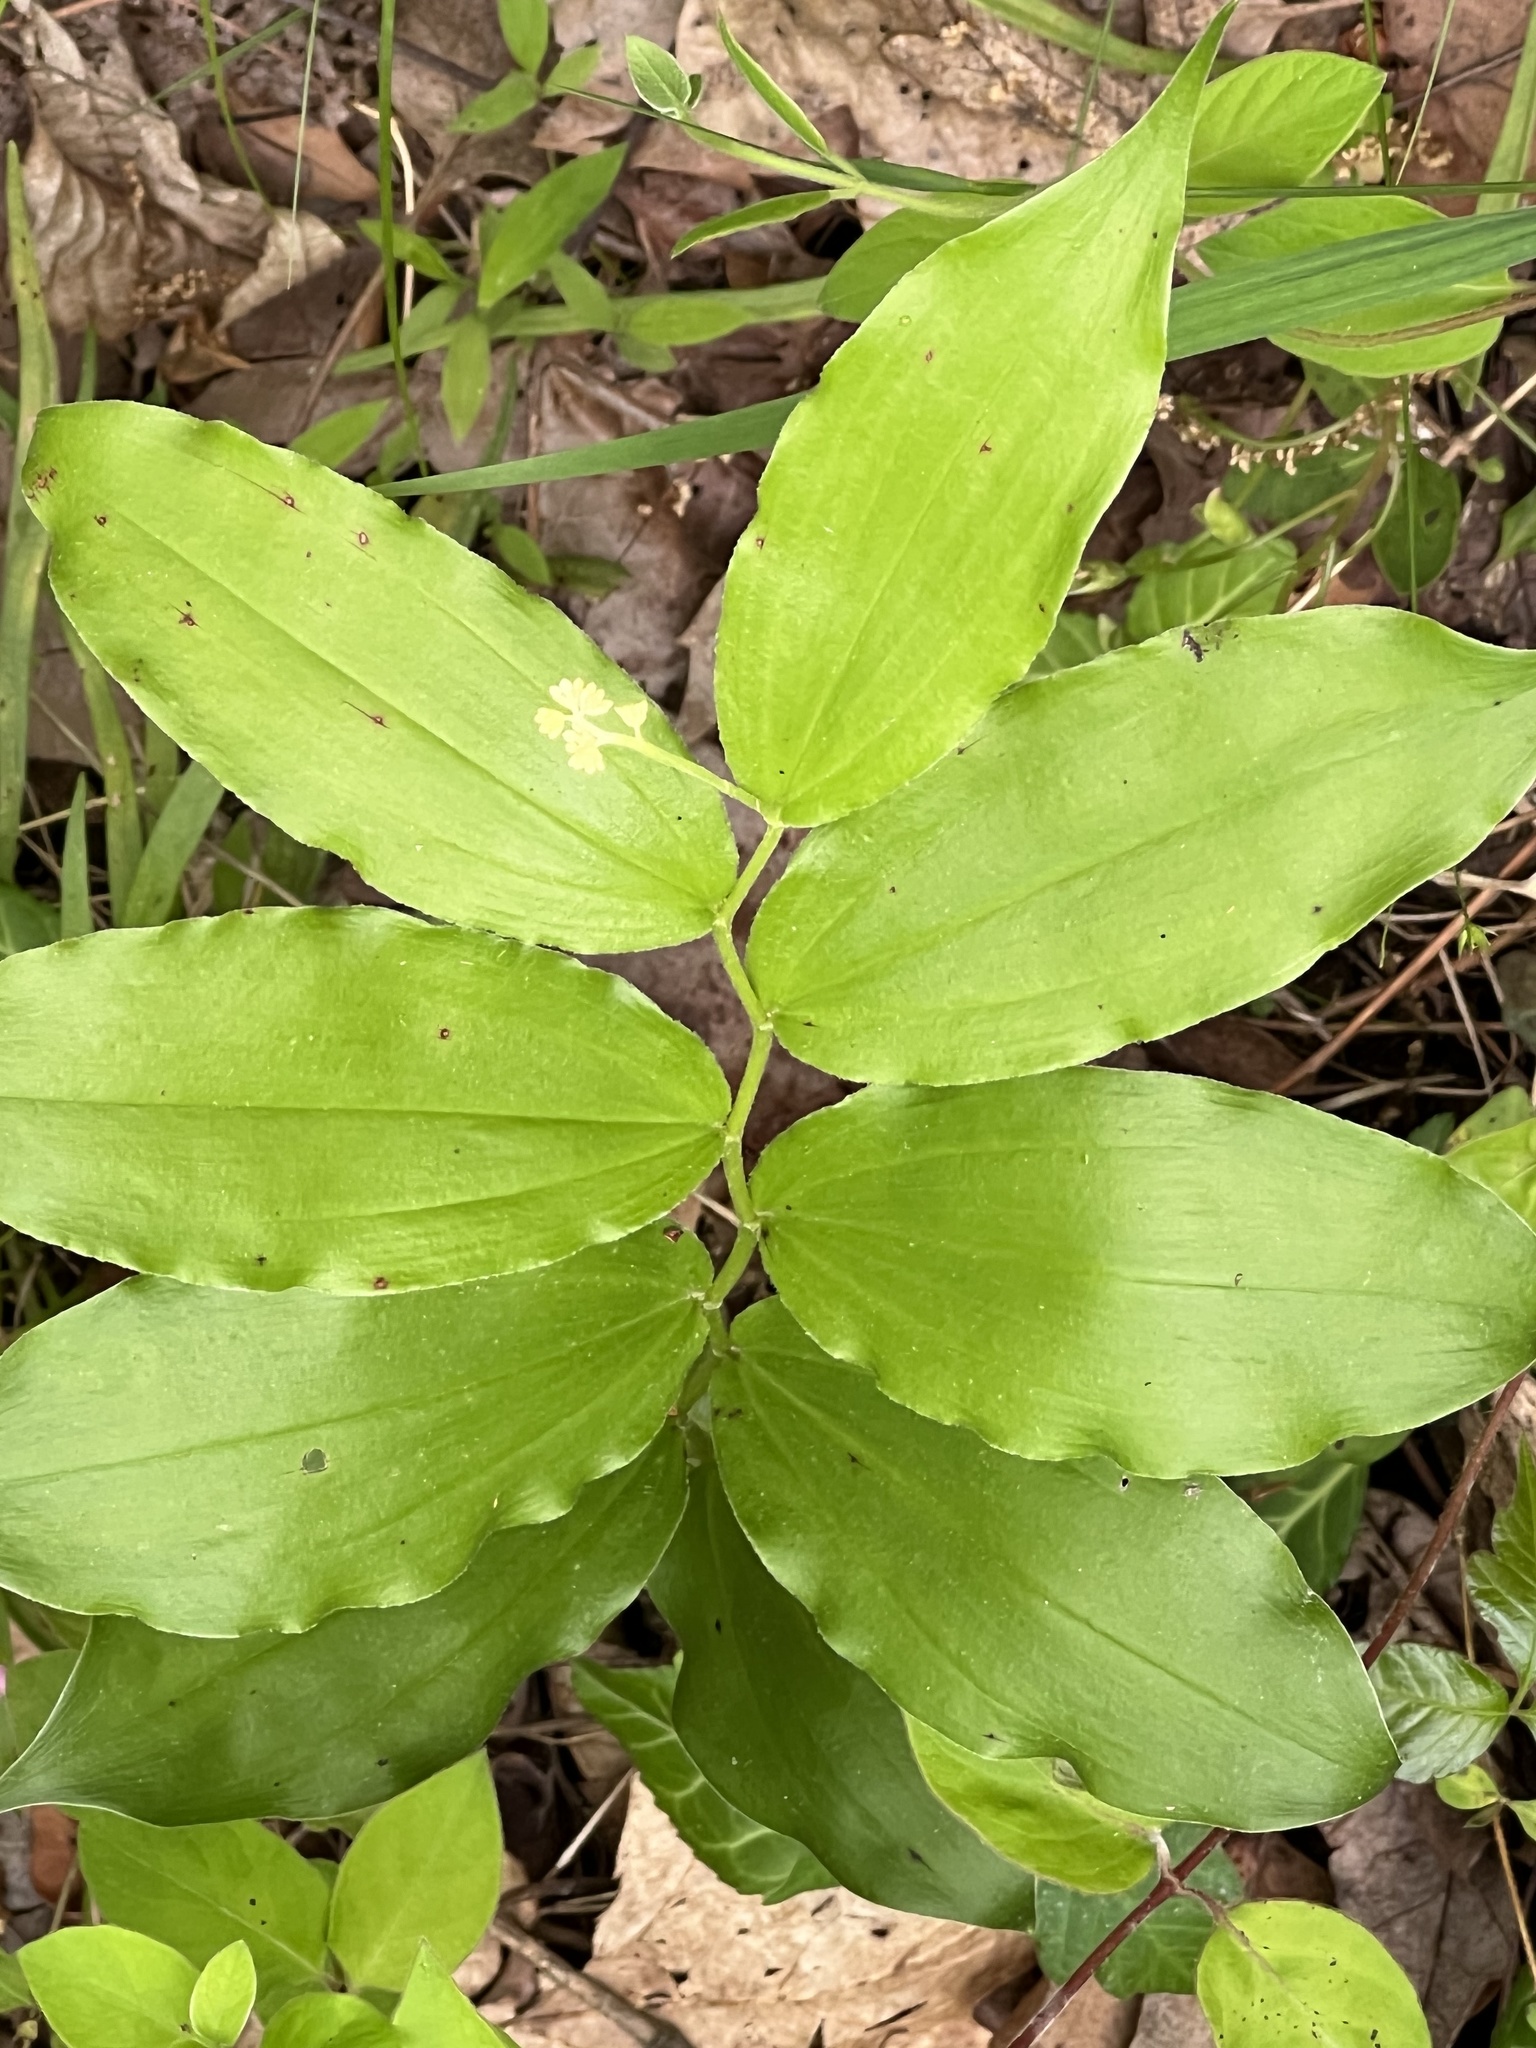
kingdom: Plantae
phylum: Tracheophyta
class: Liliopsida
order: Asparagales
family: Asparagaceae
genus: Maianthemum
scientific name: Maianthemum racemosum
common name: False spikenard
